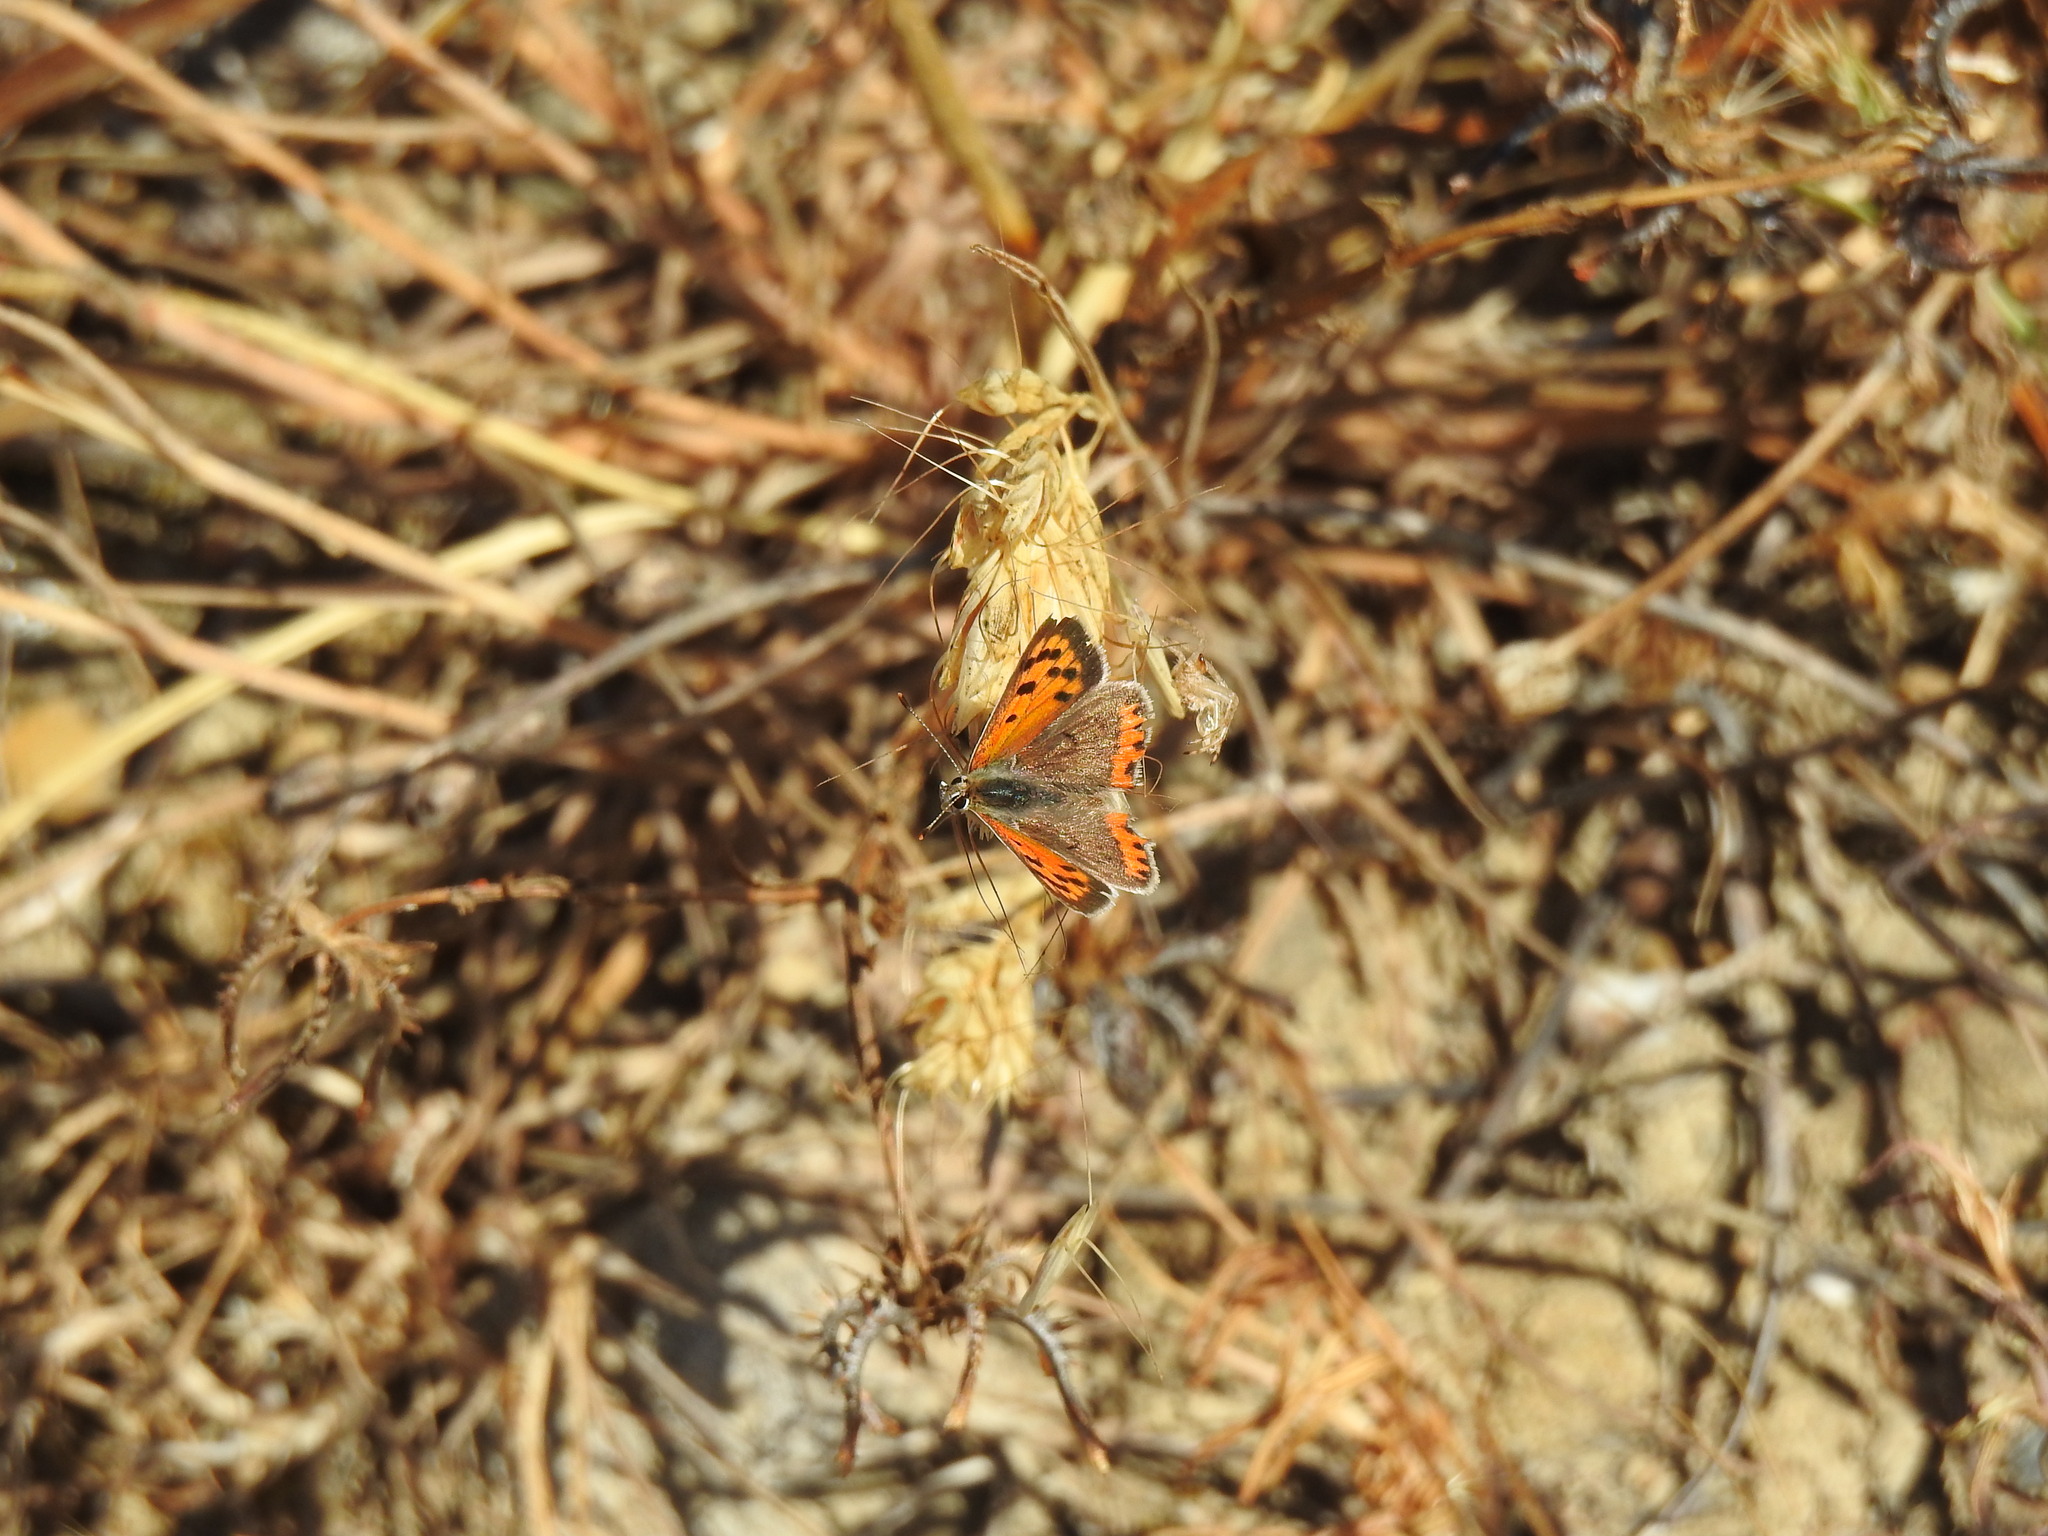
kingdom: Animalia
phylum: Arthropoda
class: Insecta
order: Lepidoptera
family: Lycaenidae
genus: Lycaena
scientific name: Lycaena phlaeas
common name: Small copper
